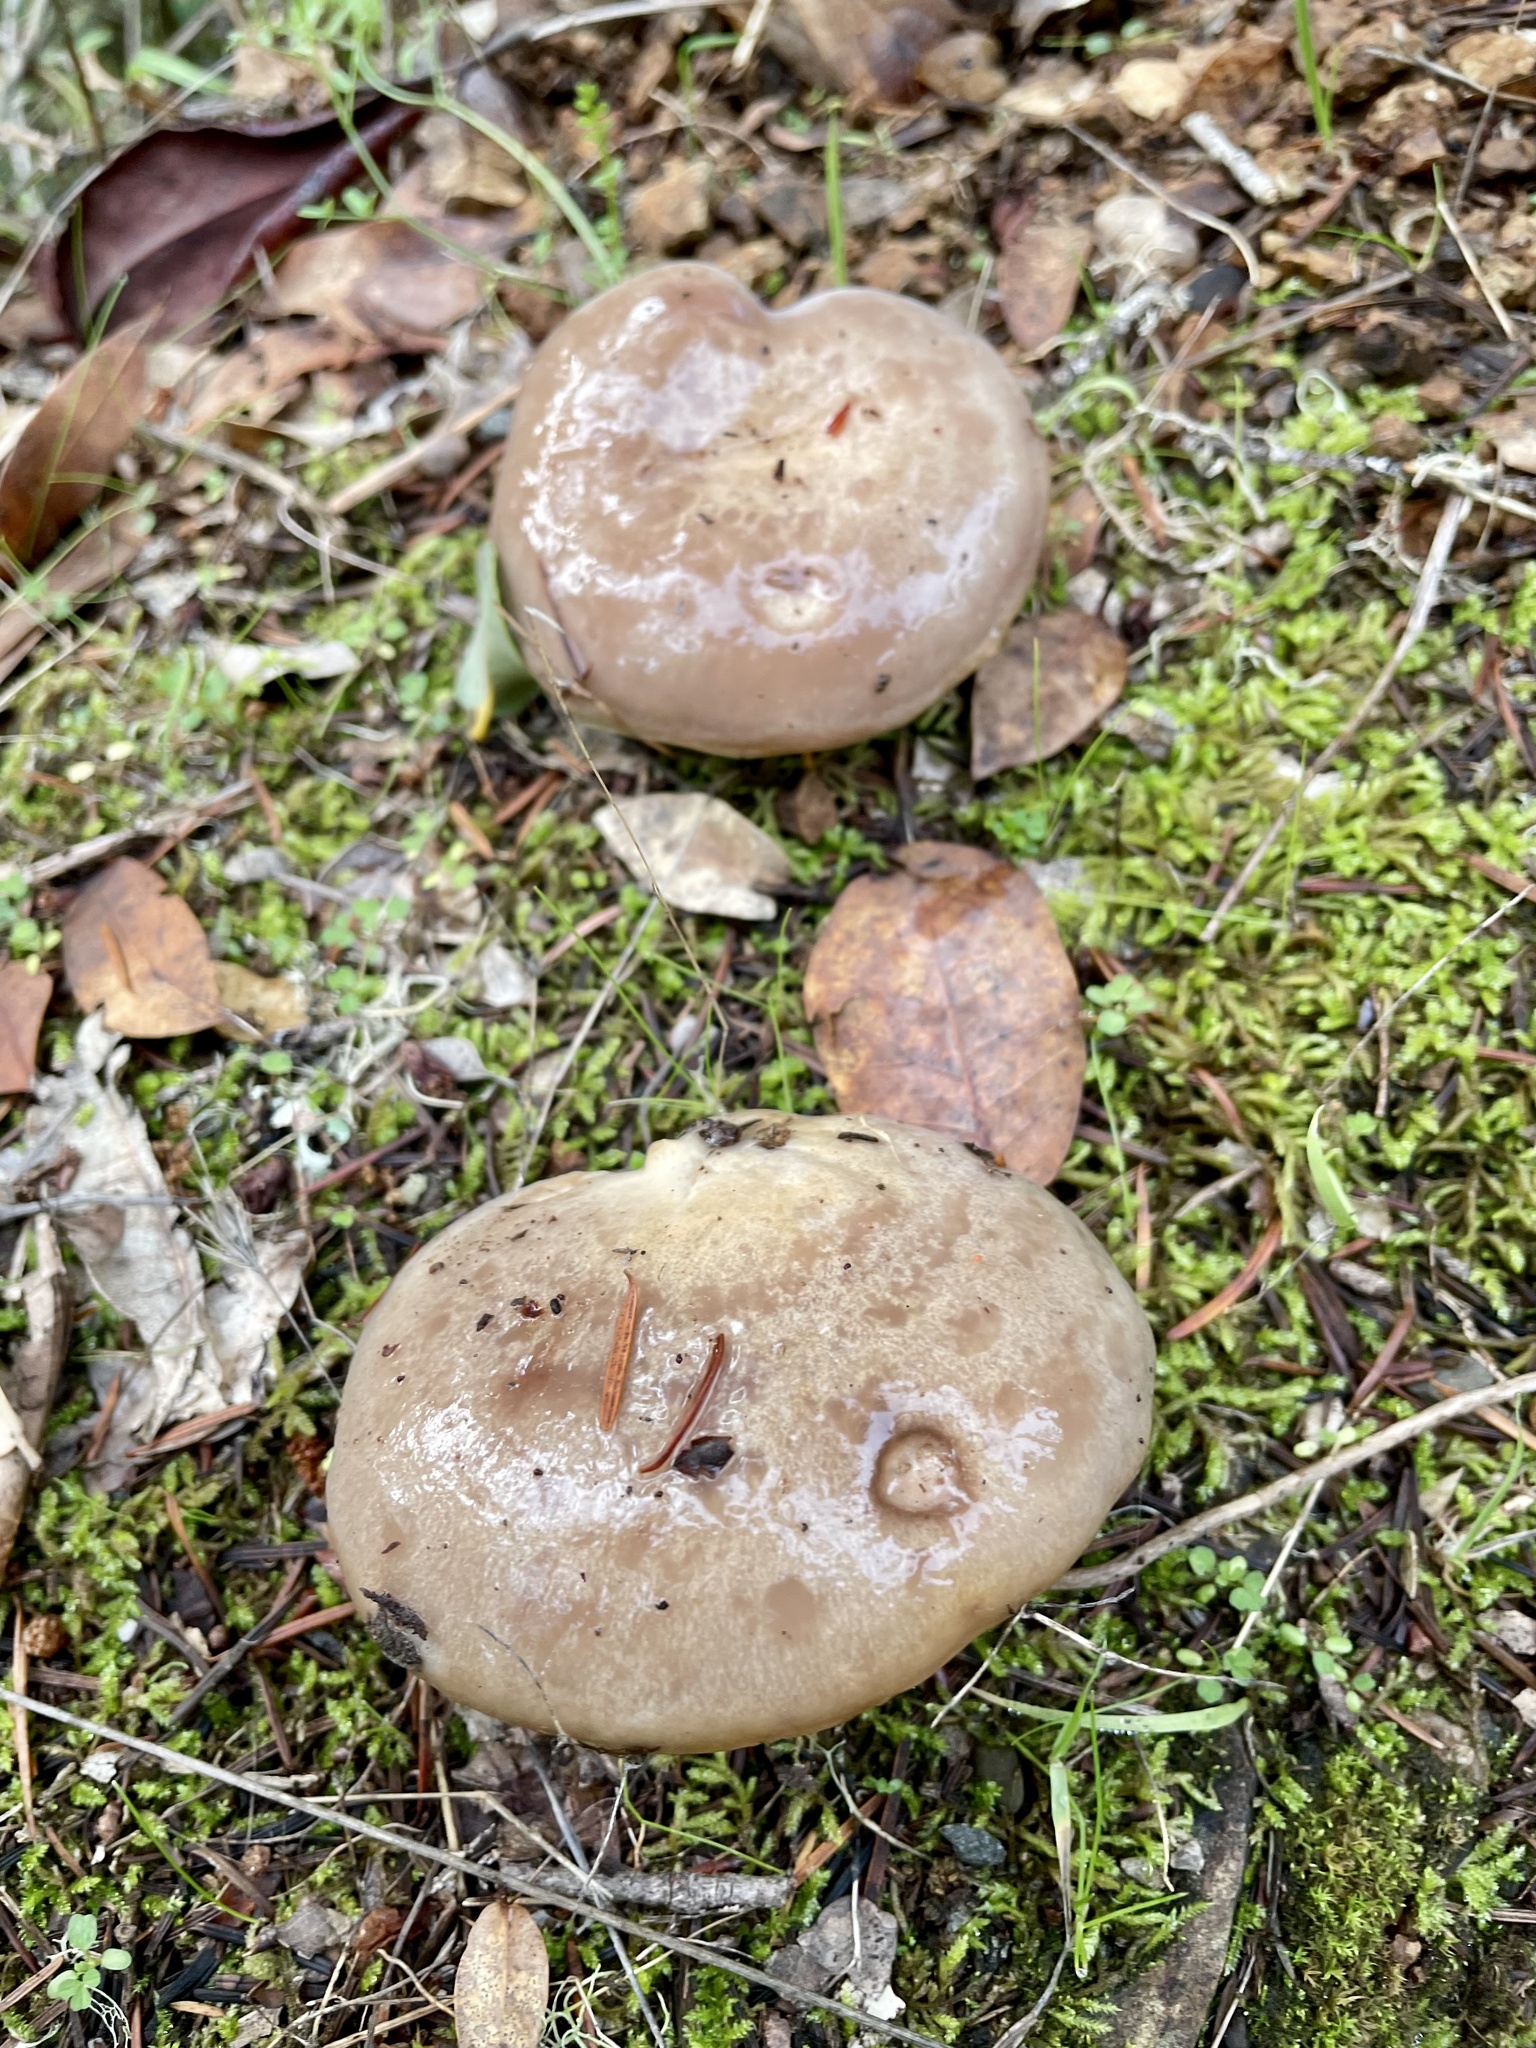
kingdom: Fungi
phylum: Basidiomycota
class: Agaricomycetes
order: Russulales
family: Russulaceae
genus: Lactarius
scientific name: Lactarius californiensis
